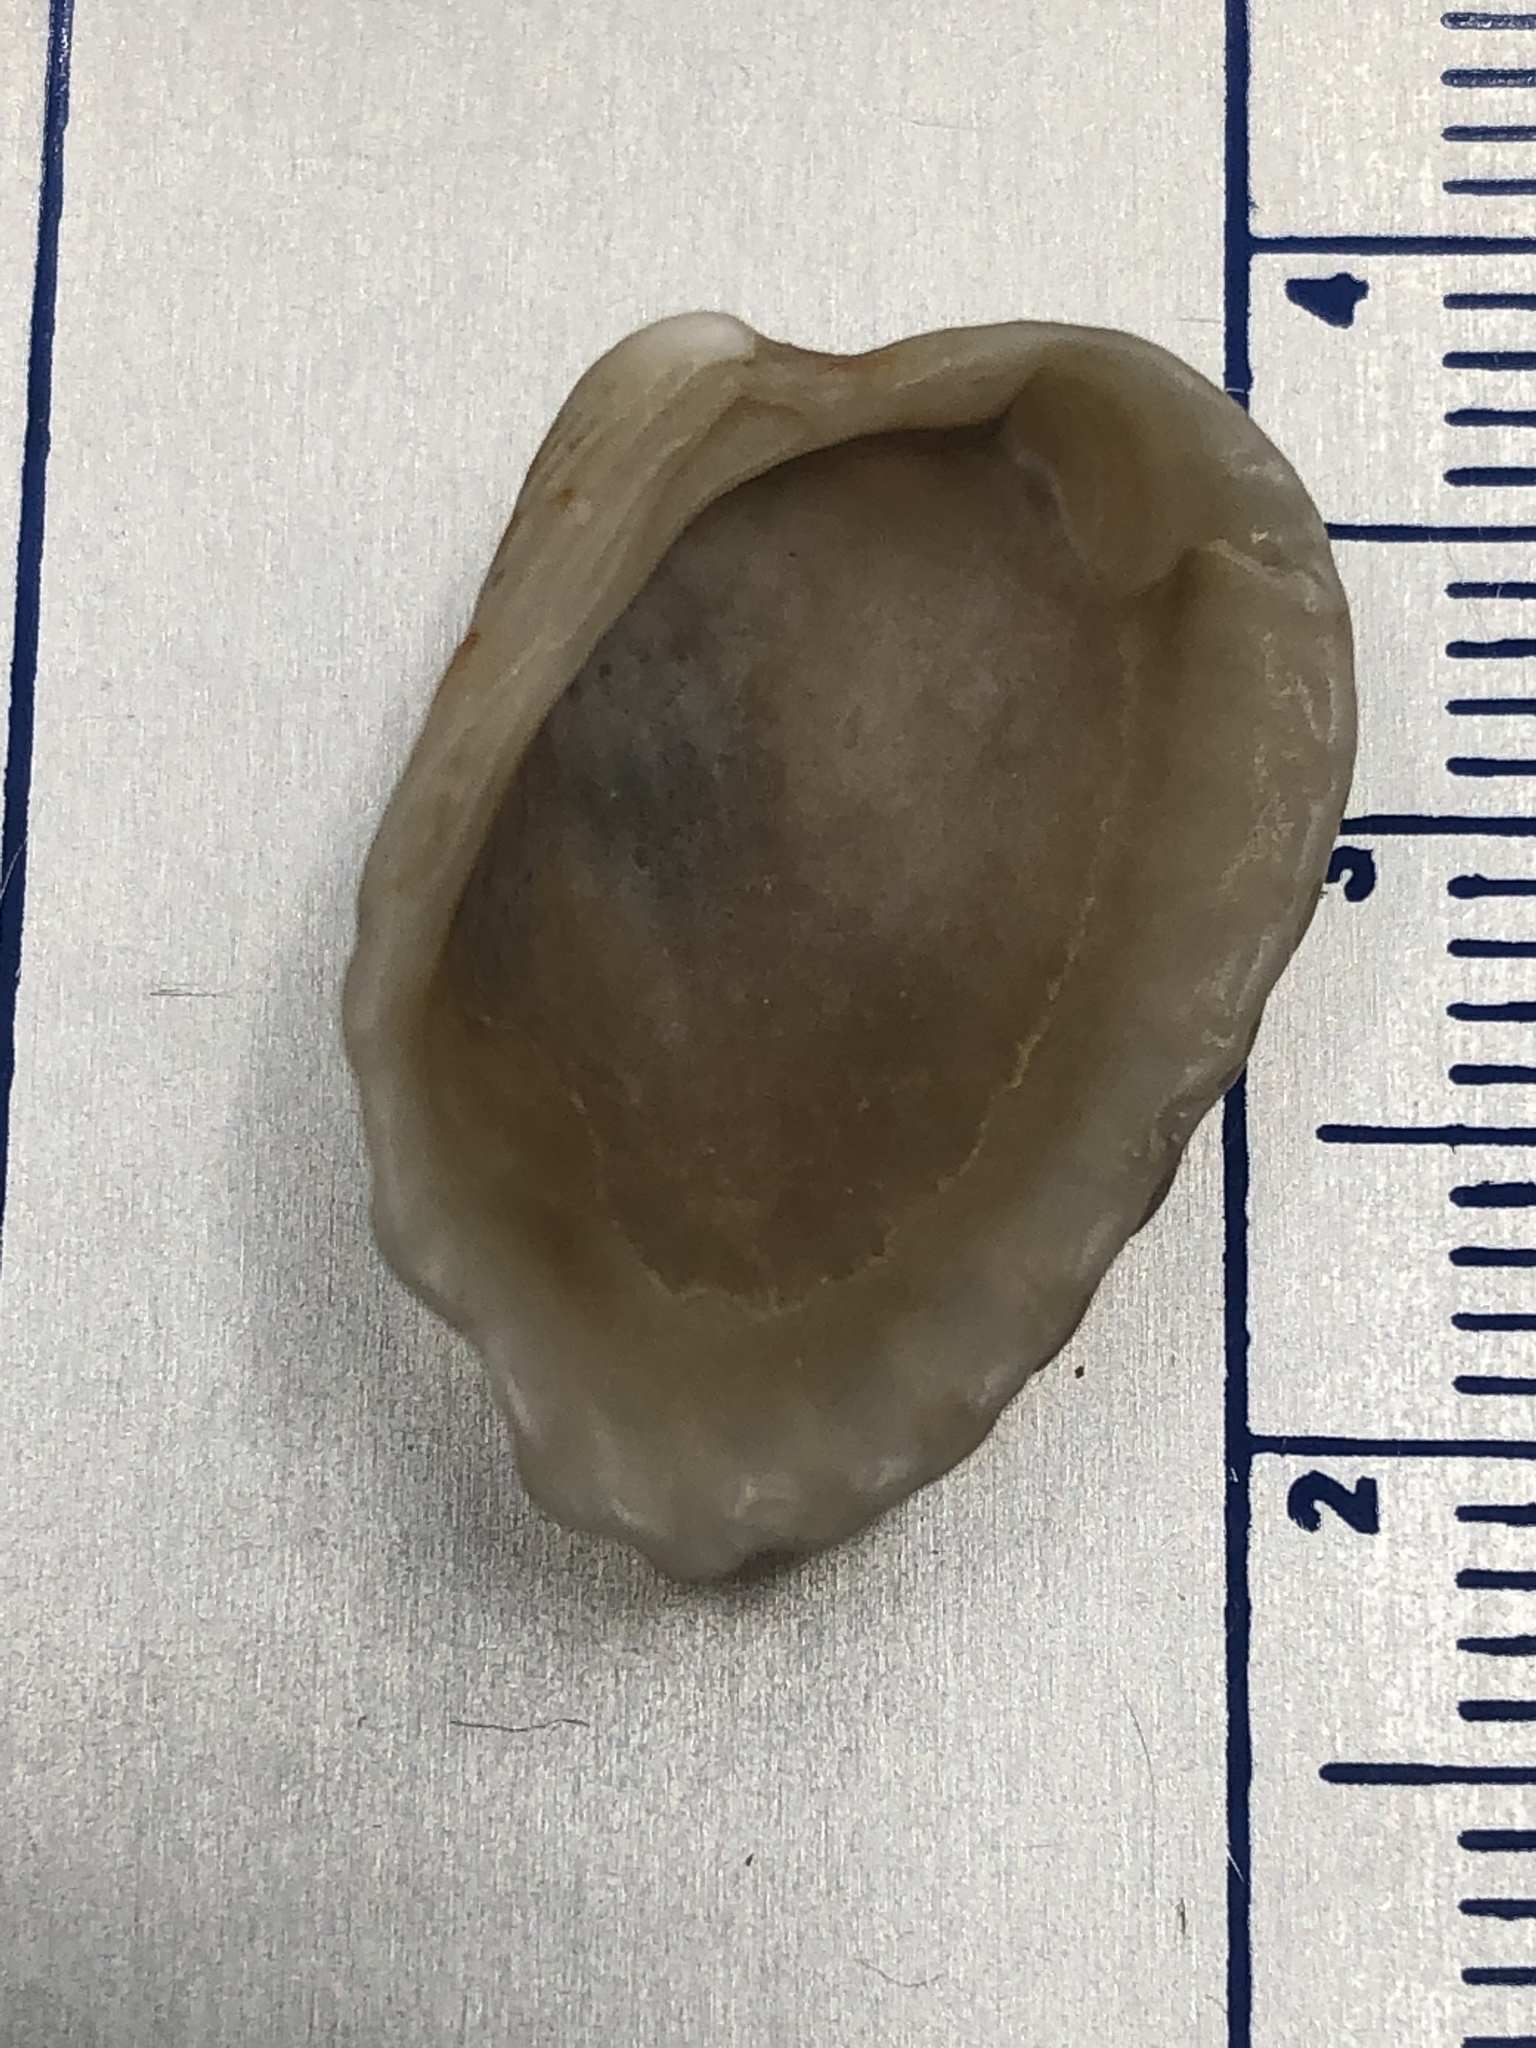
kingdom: Animalia
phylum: Mollusca
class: Bivalvia
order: Carditida
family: Carditidae
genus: Cardites
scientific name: Cardites floridanus
